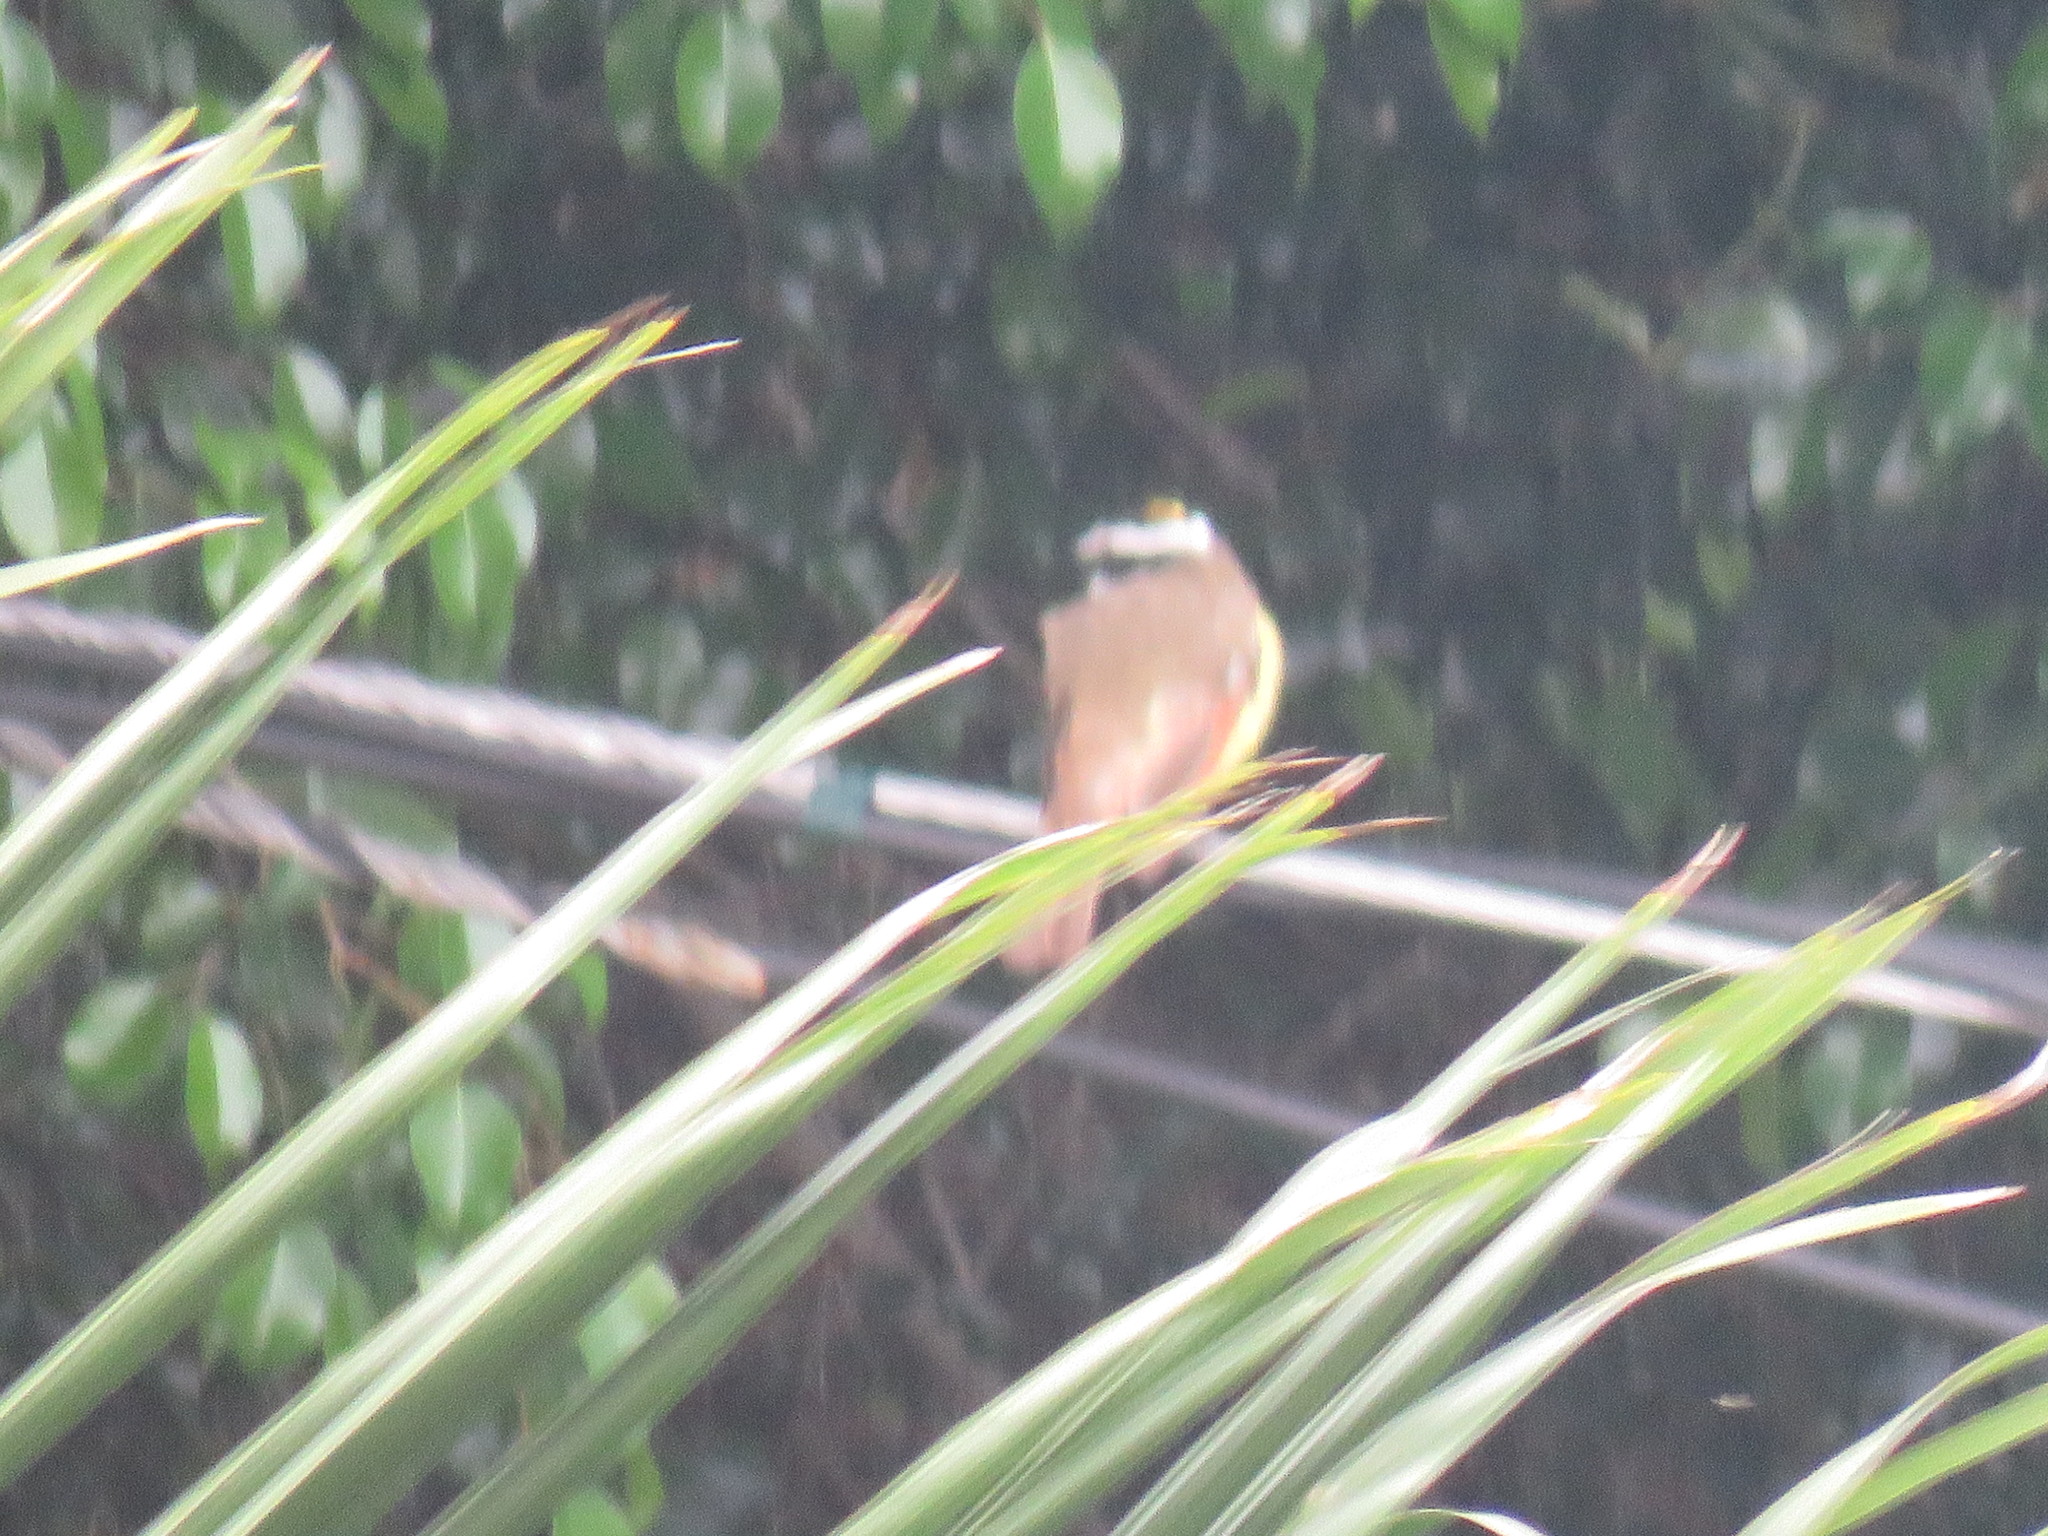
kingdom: Animalia
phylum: Chordata
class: Aves
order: Passeriformes
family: Tyrannidae
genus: Pitangus
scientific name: Pitangus sulphuratus
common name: Great kiskadee
